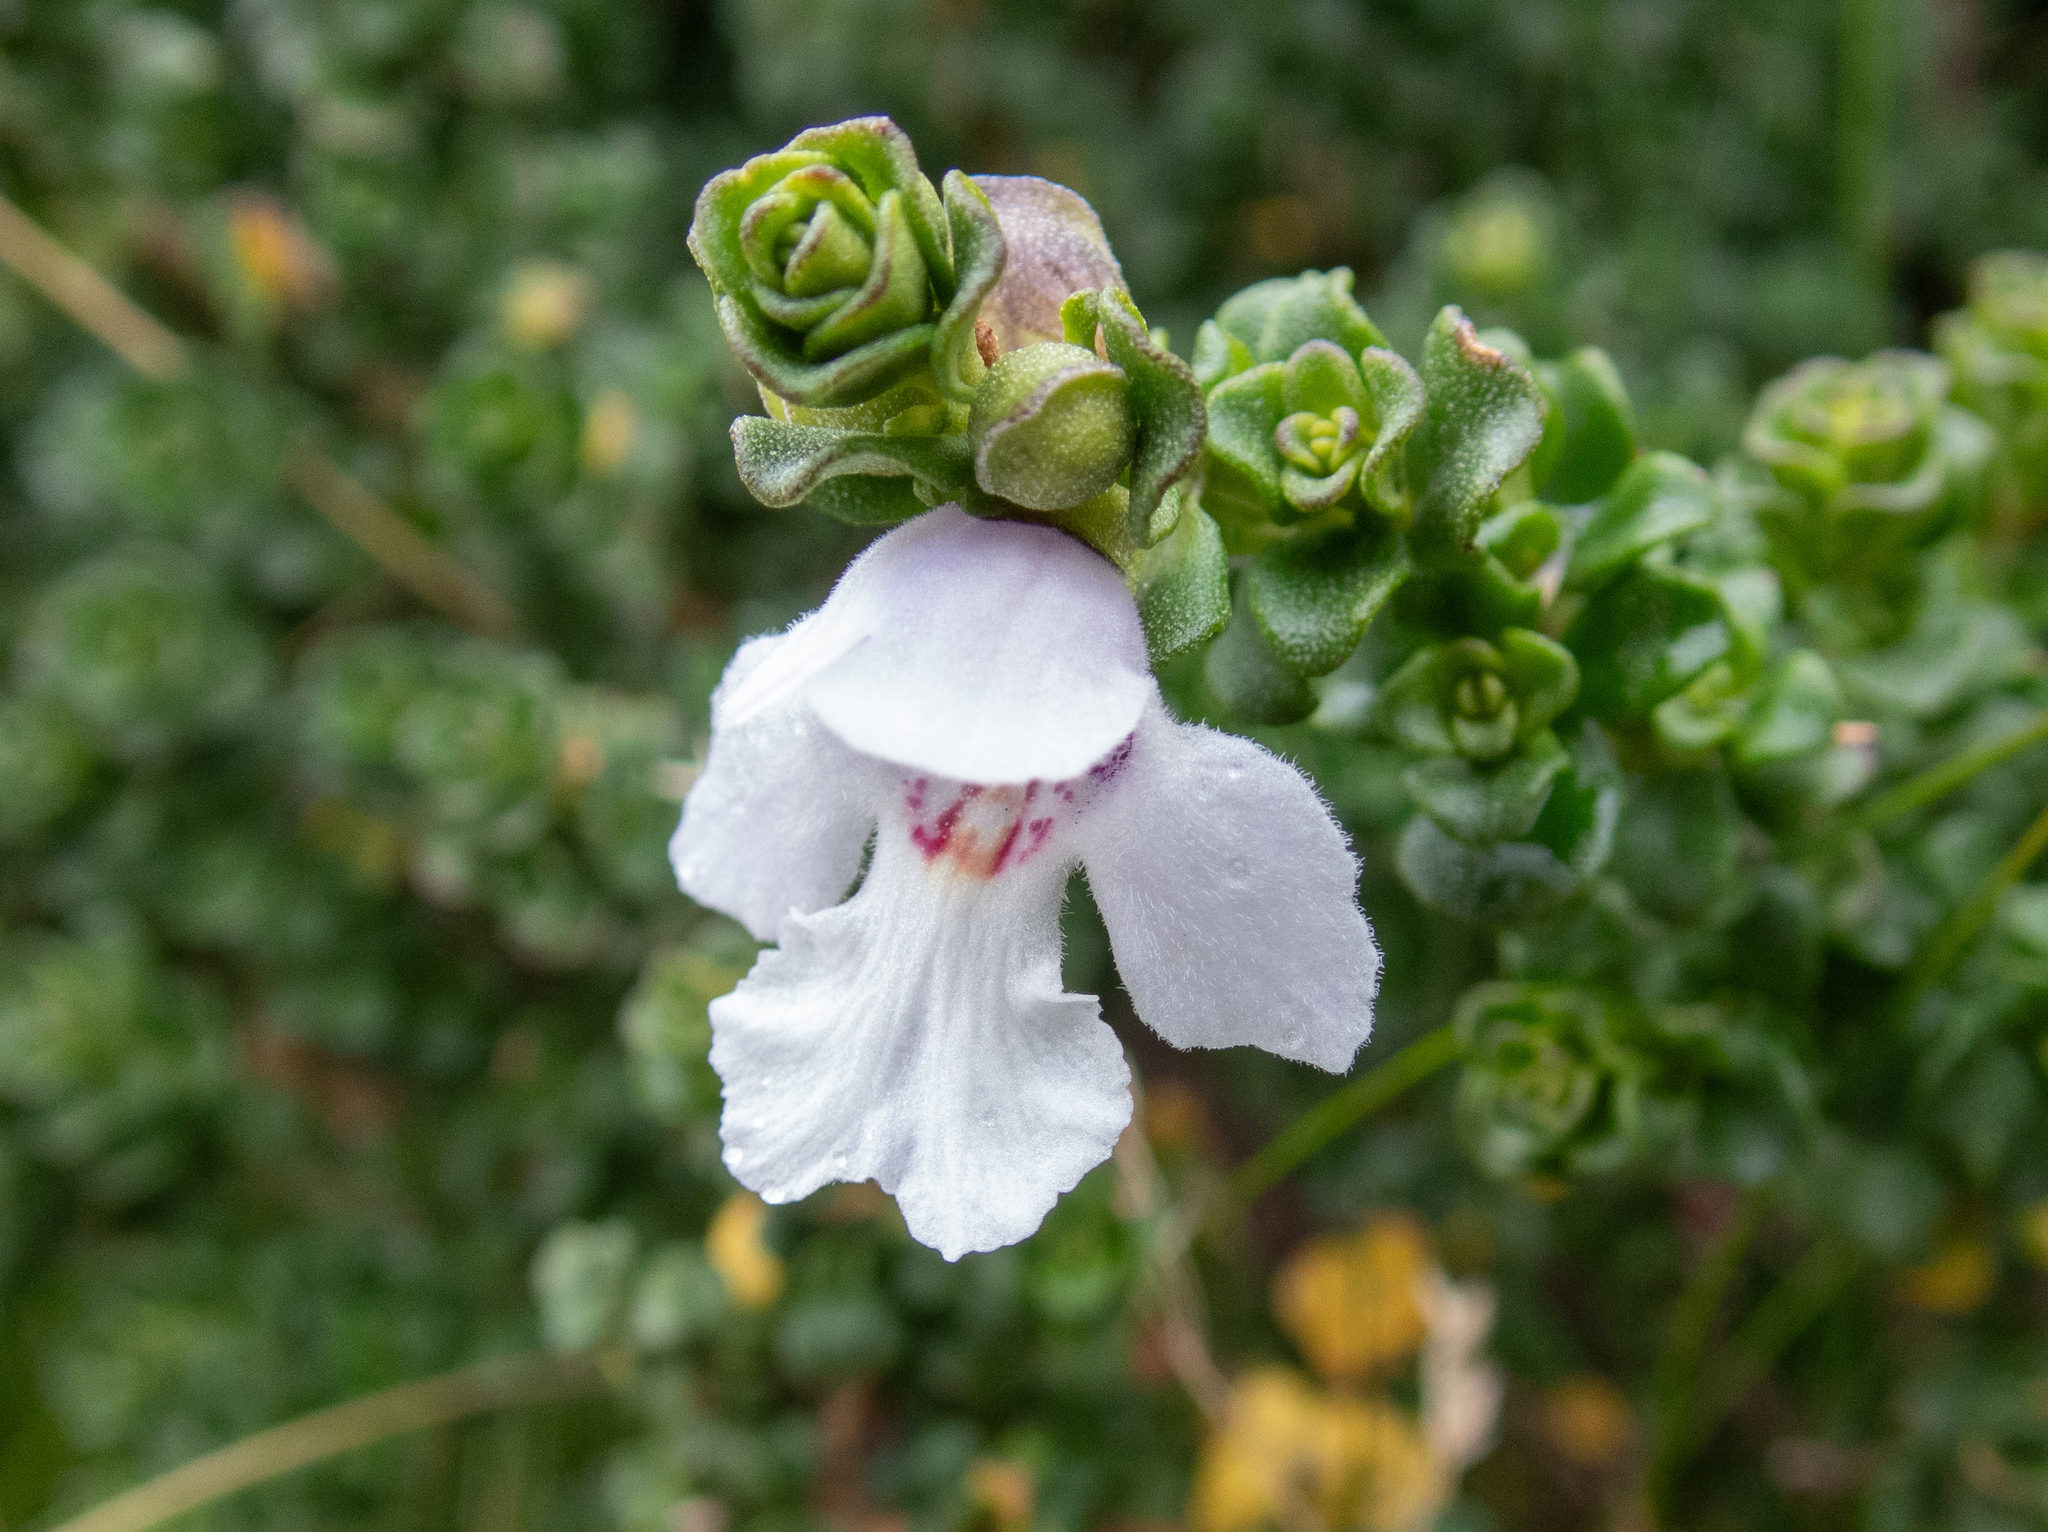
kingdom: Plantae
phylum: Tracheophyta
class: Magnoliopsida
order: Lamiales
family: Lamiaceae
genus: Prostanthera
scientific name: Prostanthera cuneata
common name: Alpine mintbush
